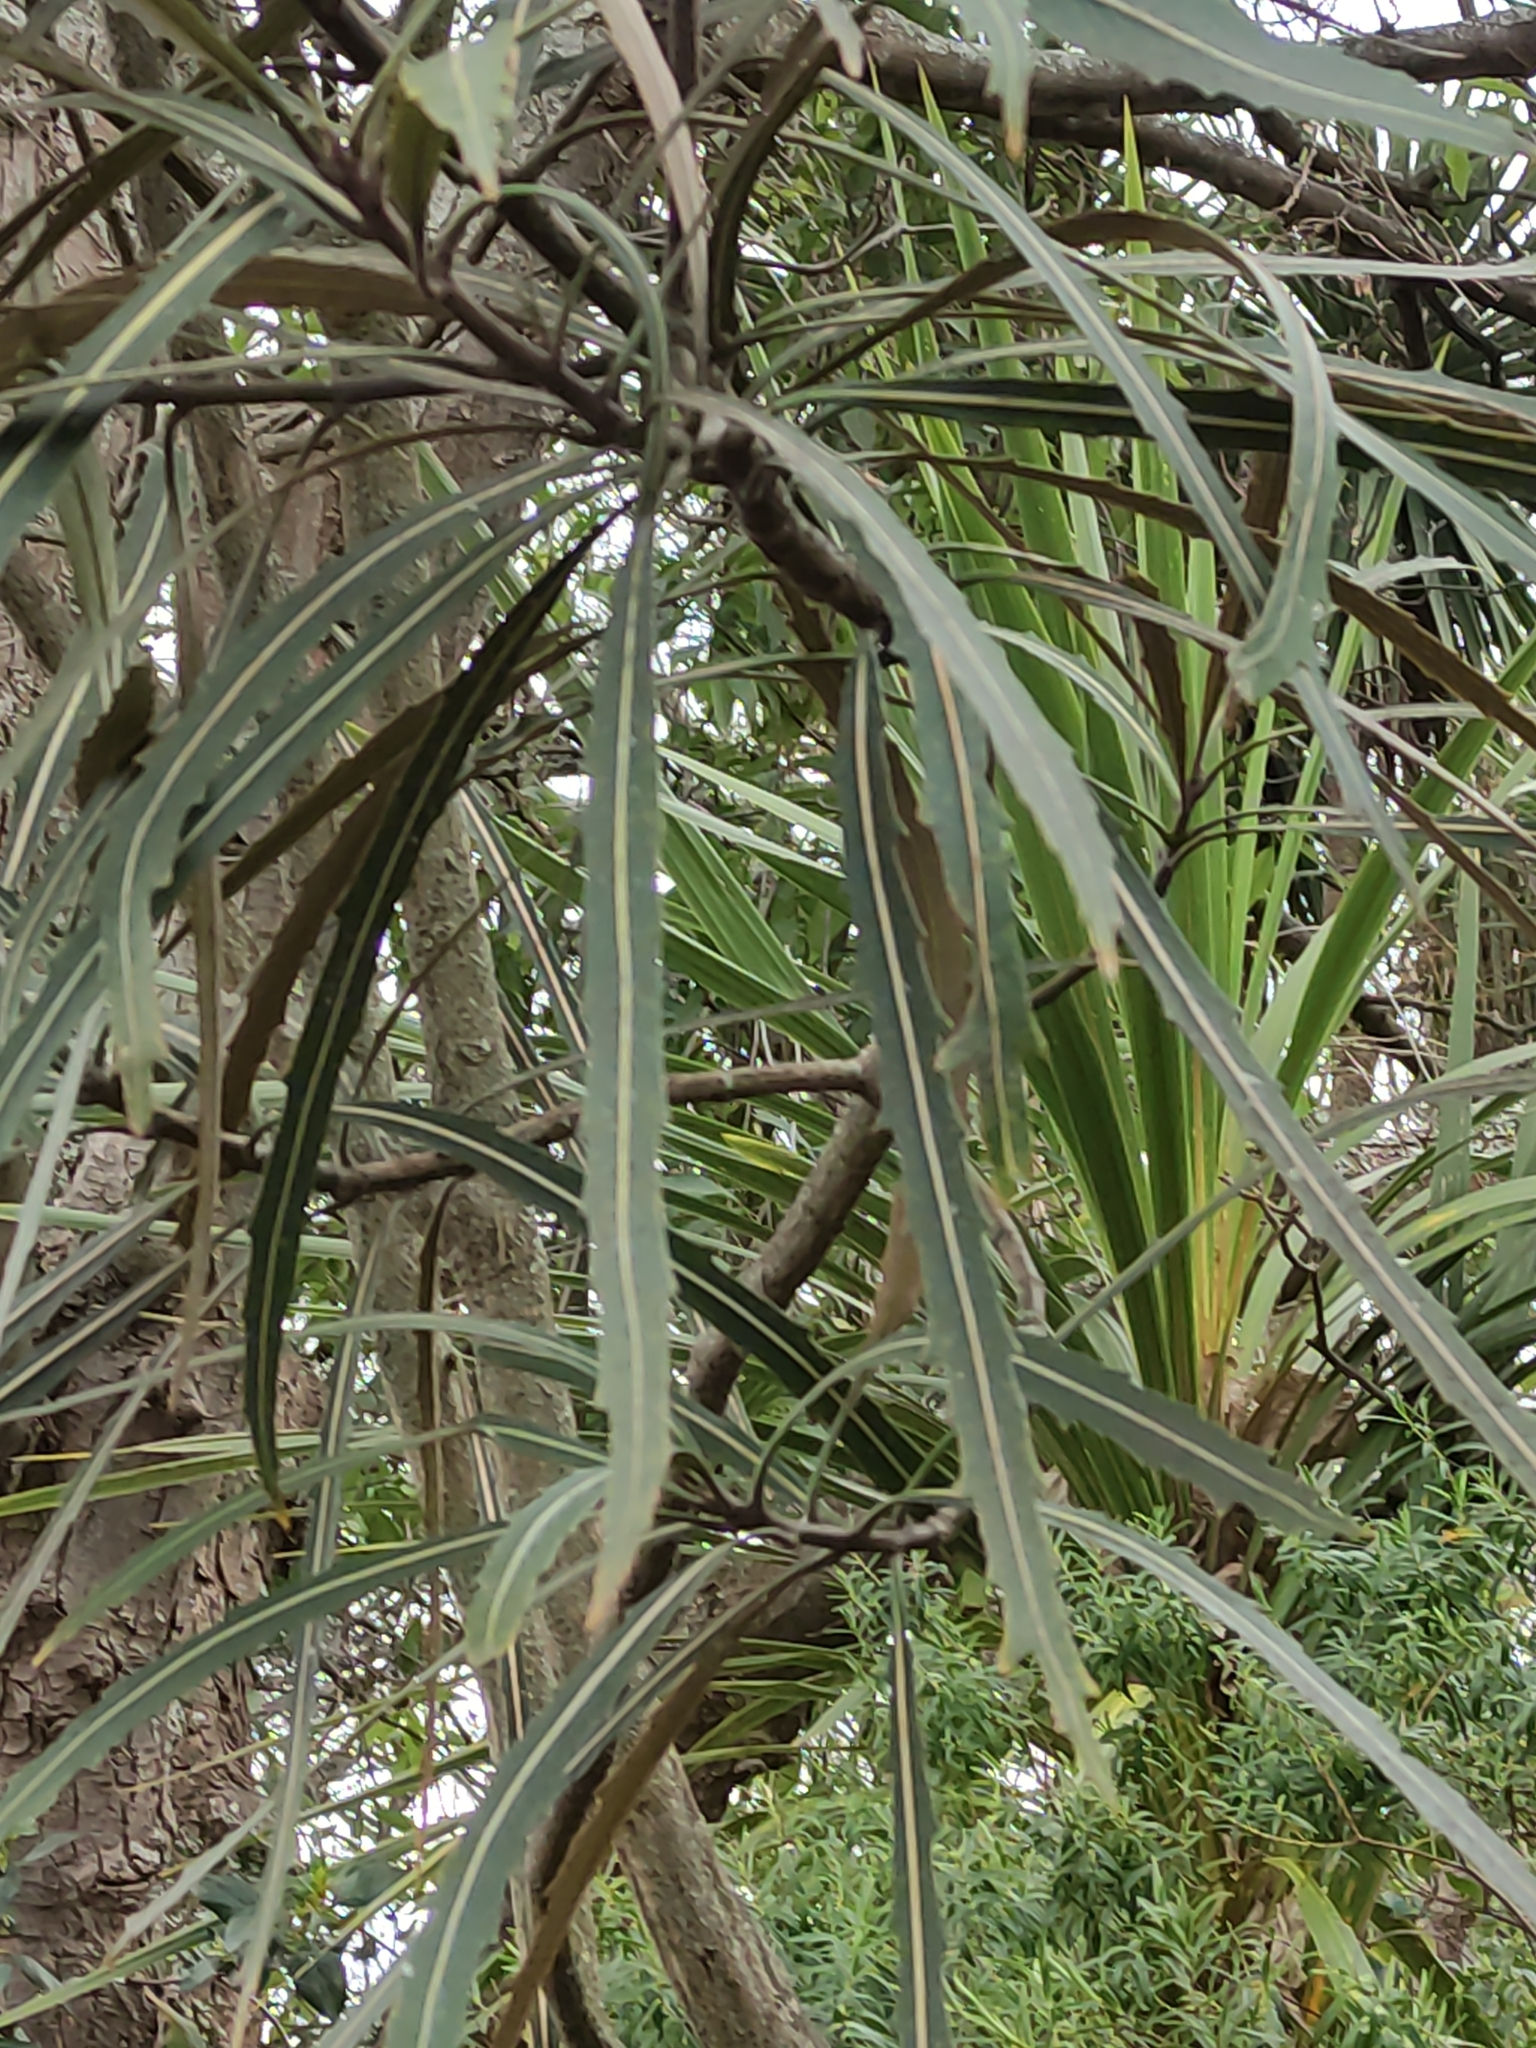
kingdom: Plantae
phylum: Tracheophyta
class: Magnoliopsida
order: Apiales
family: Araliaceae
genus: Pseudopanax
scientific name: Pseudopanax crassifolius
